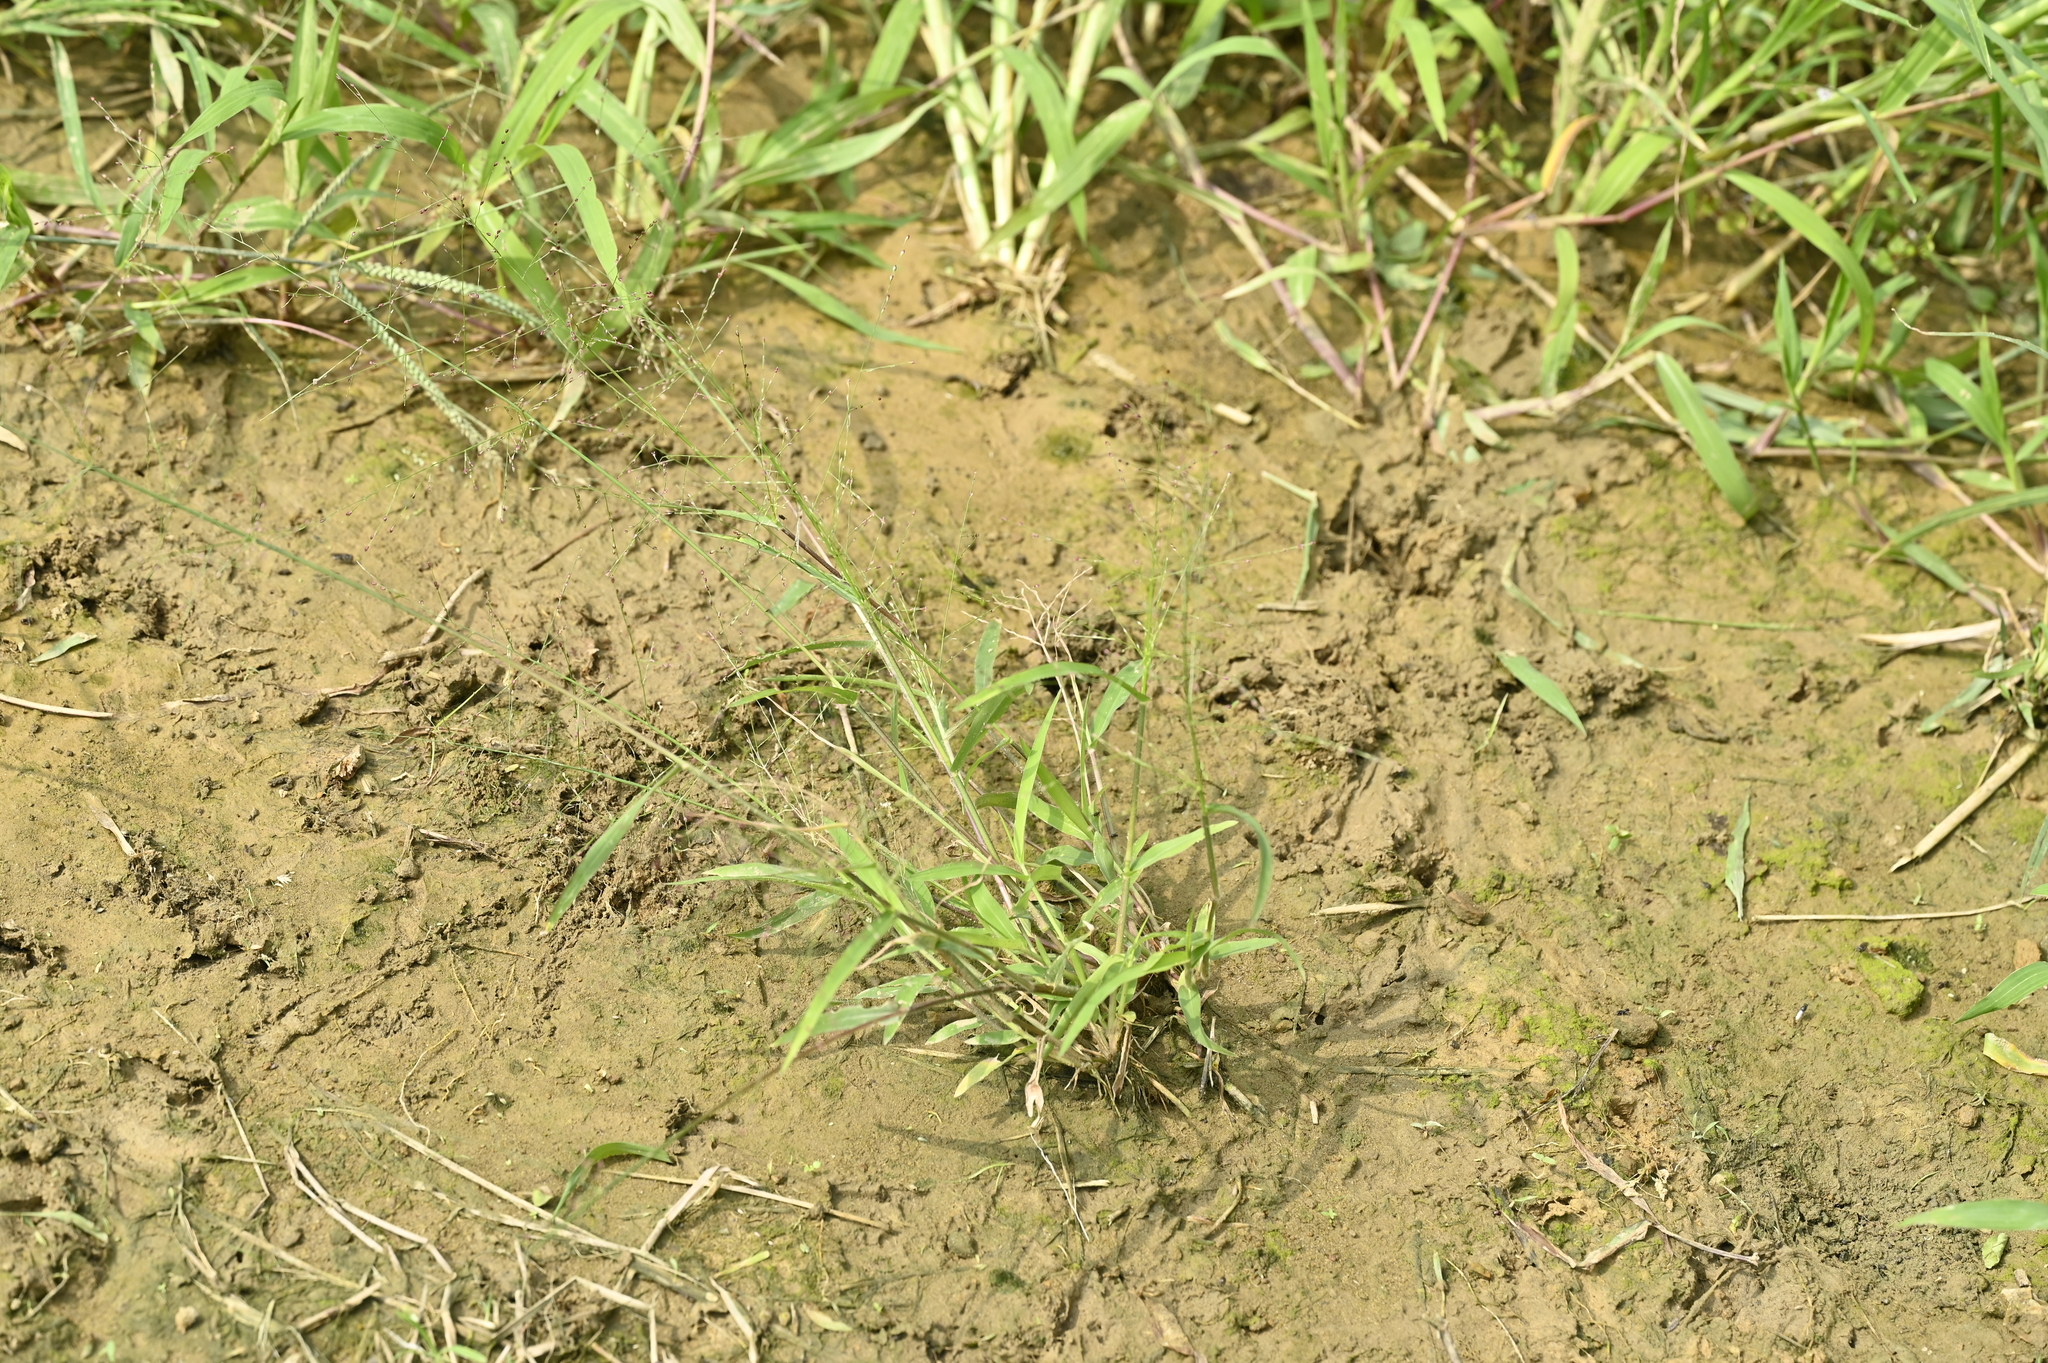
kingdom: Plantae
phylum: Tracheophyta
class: Liliopsida
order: Poales
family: Poaceae
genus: Panicum
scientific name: Panicum luzonense
